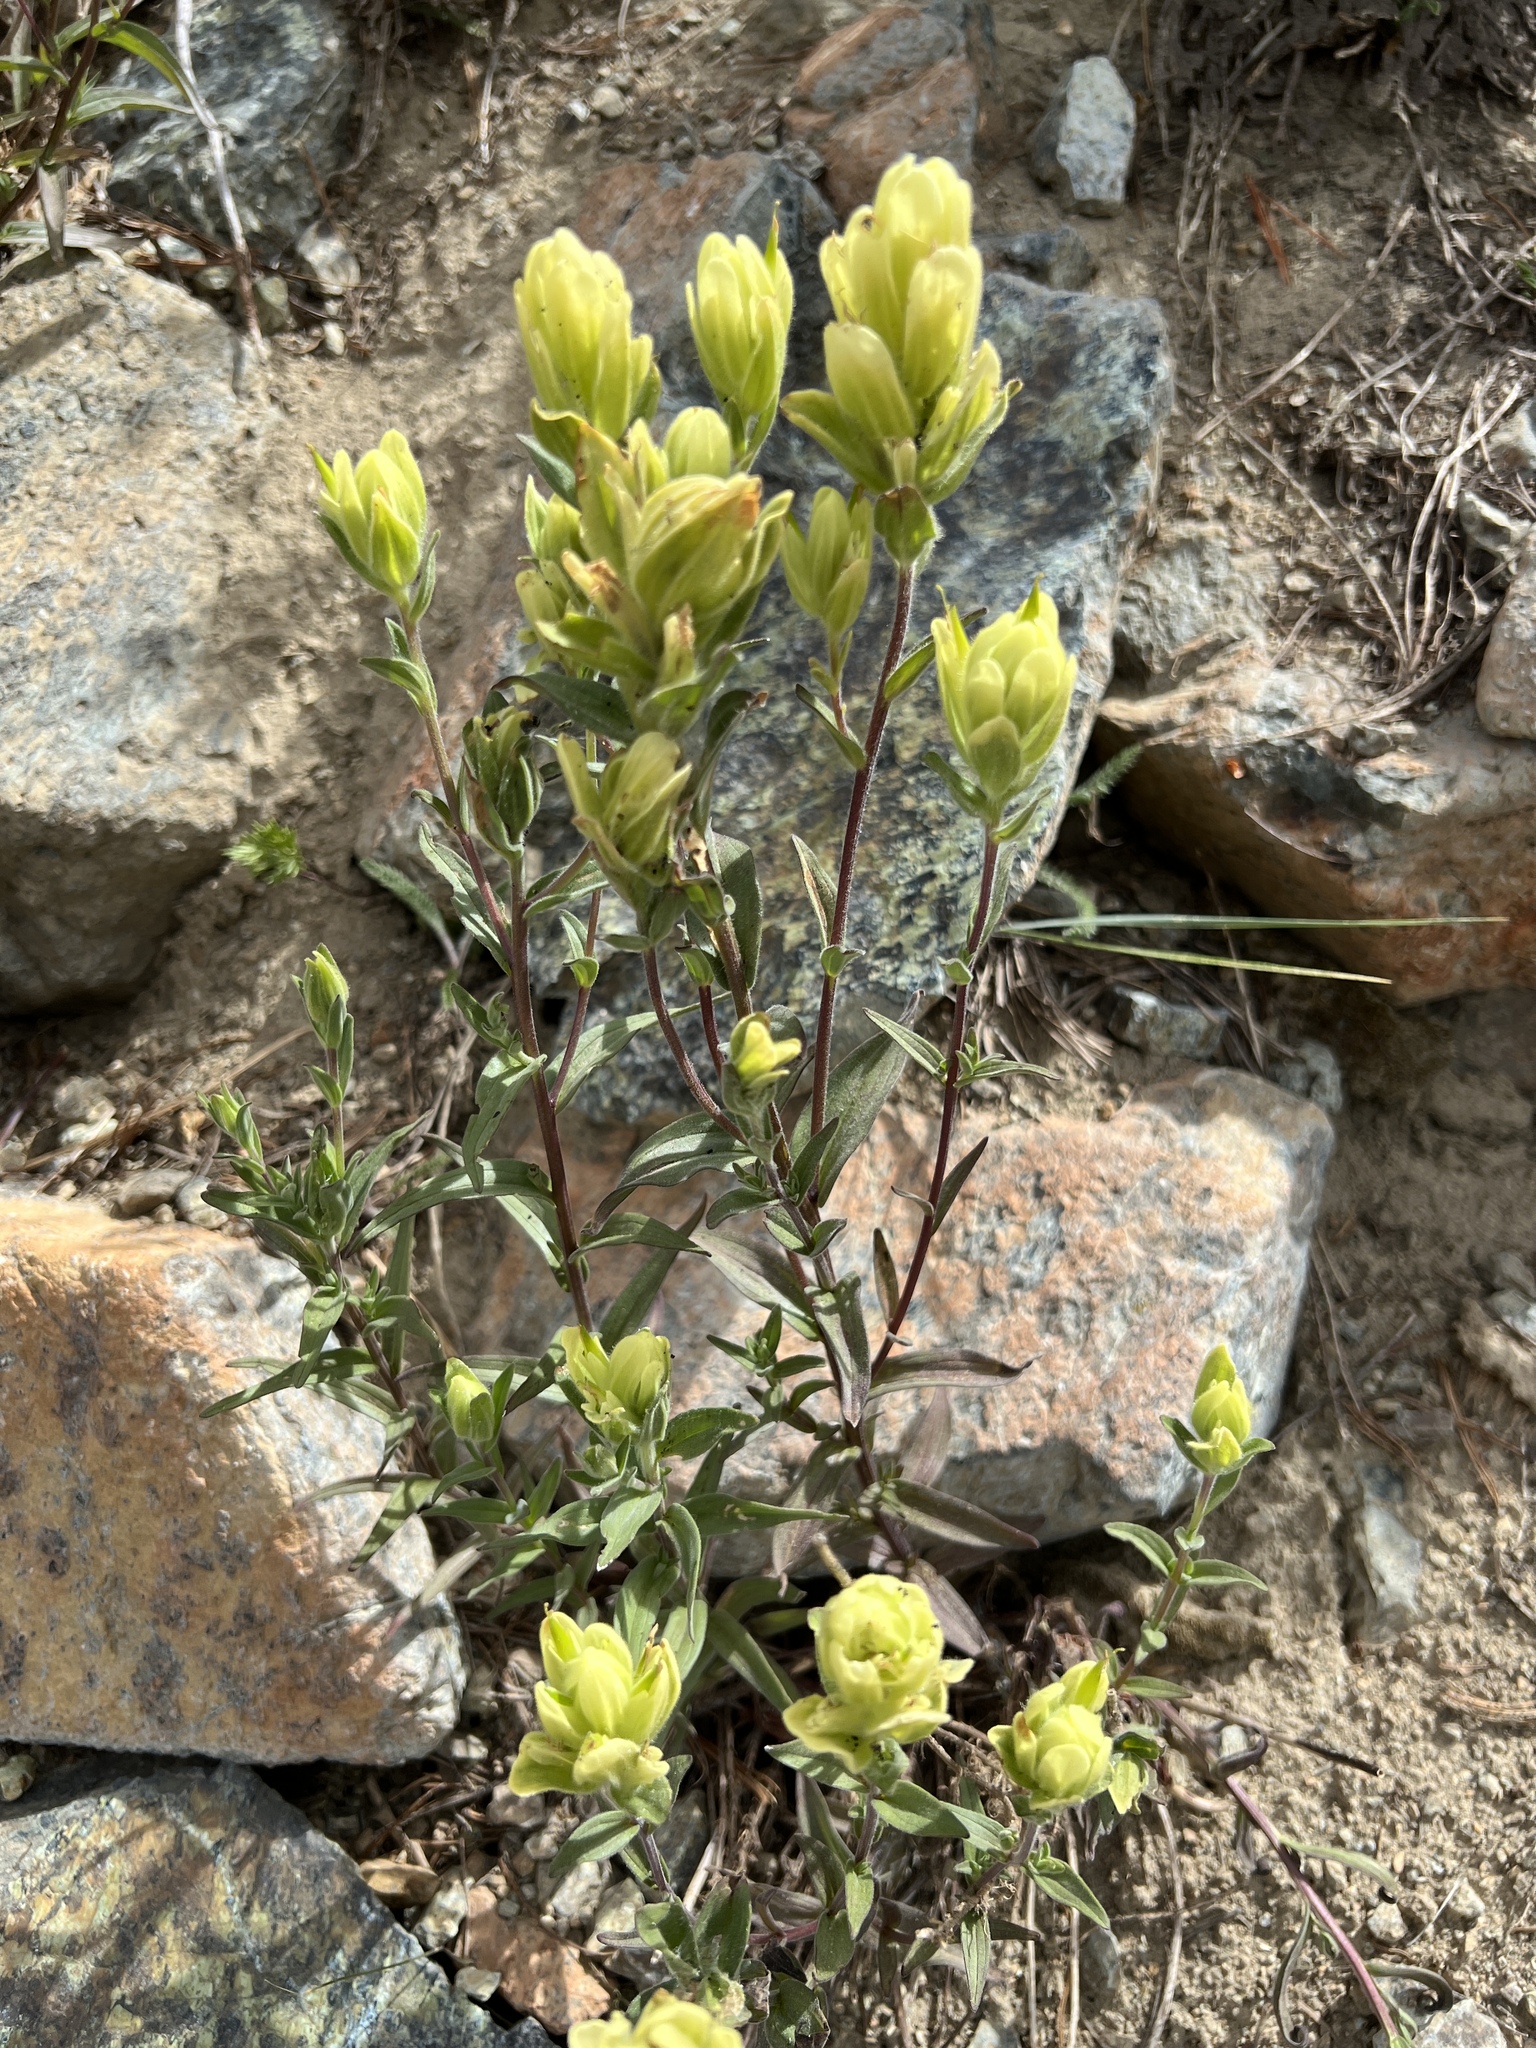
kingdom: Plantae
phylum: Tracheophyta
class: Magnoliopsida
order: Lamiales
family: Orobanchaceae
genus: Castilleja
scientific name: Castilleja elmeri
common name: Elmer's paintbrush
